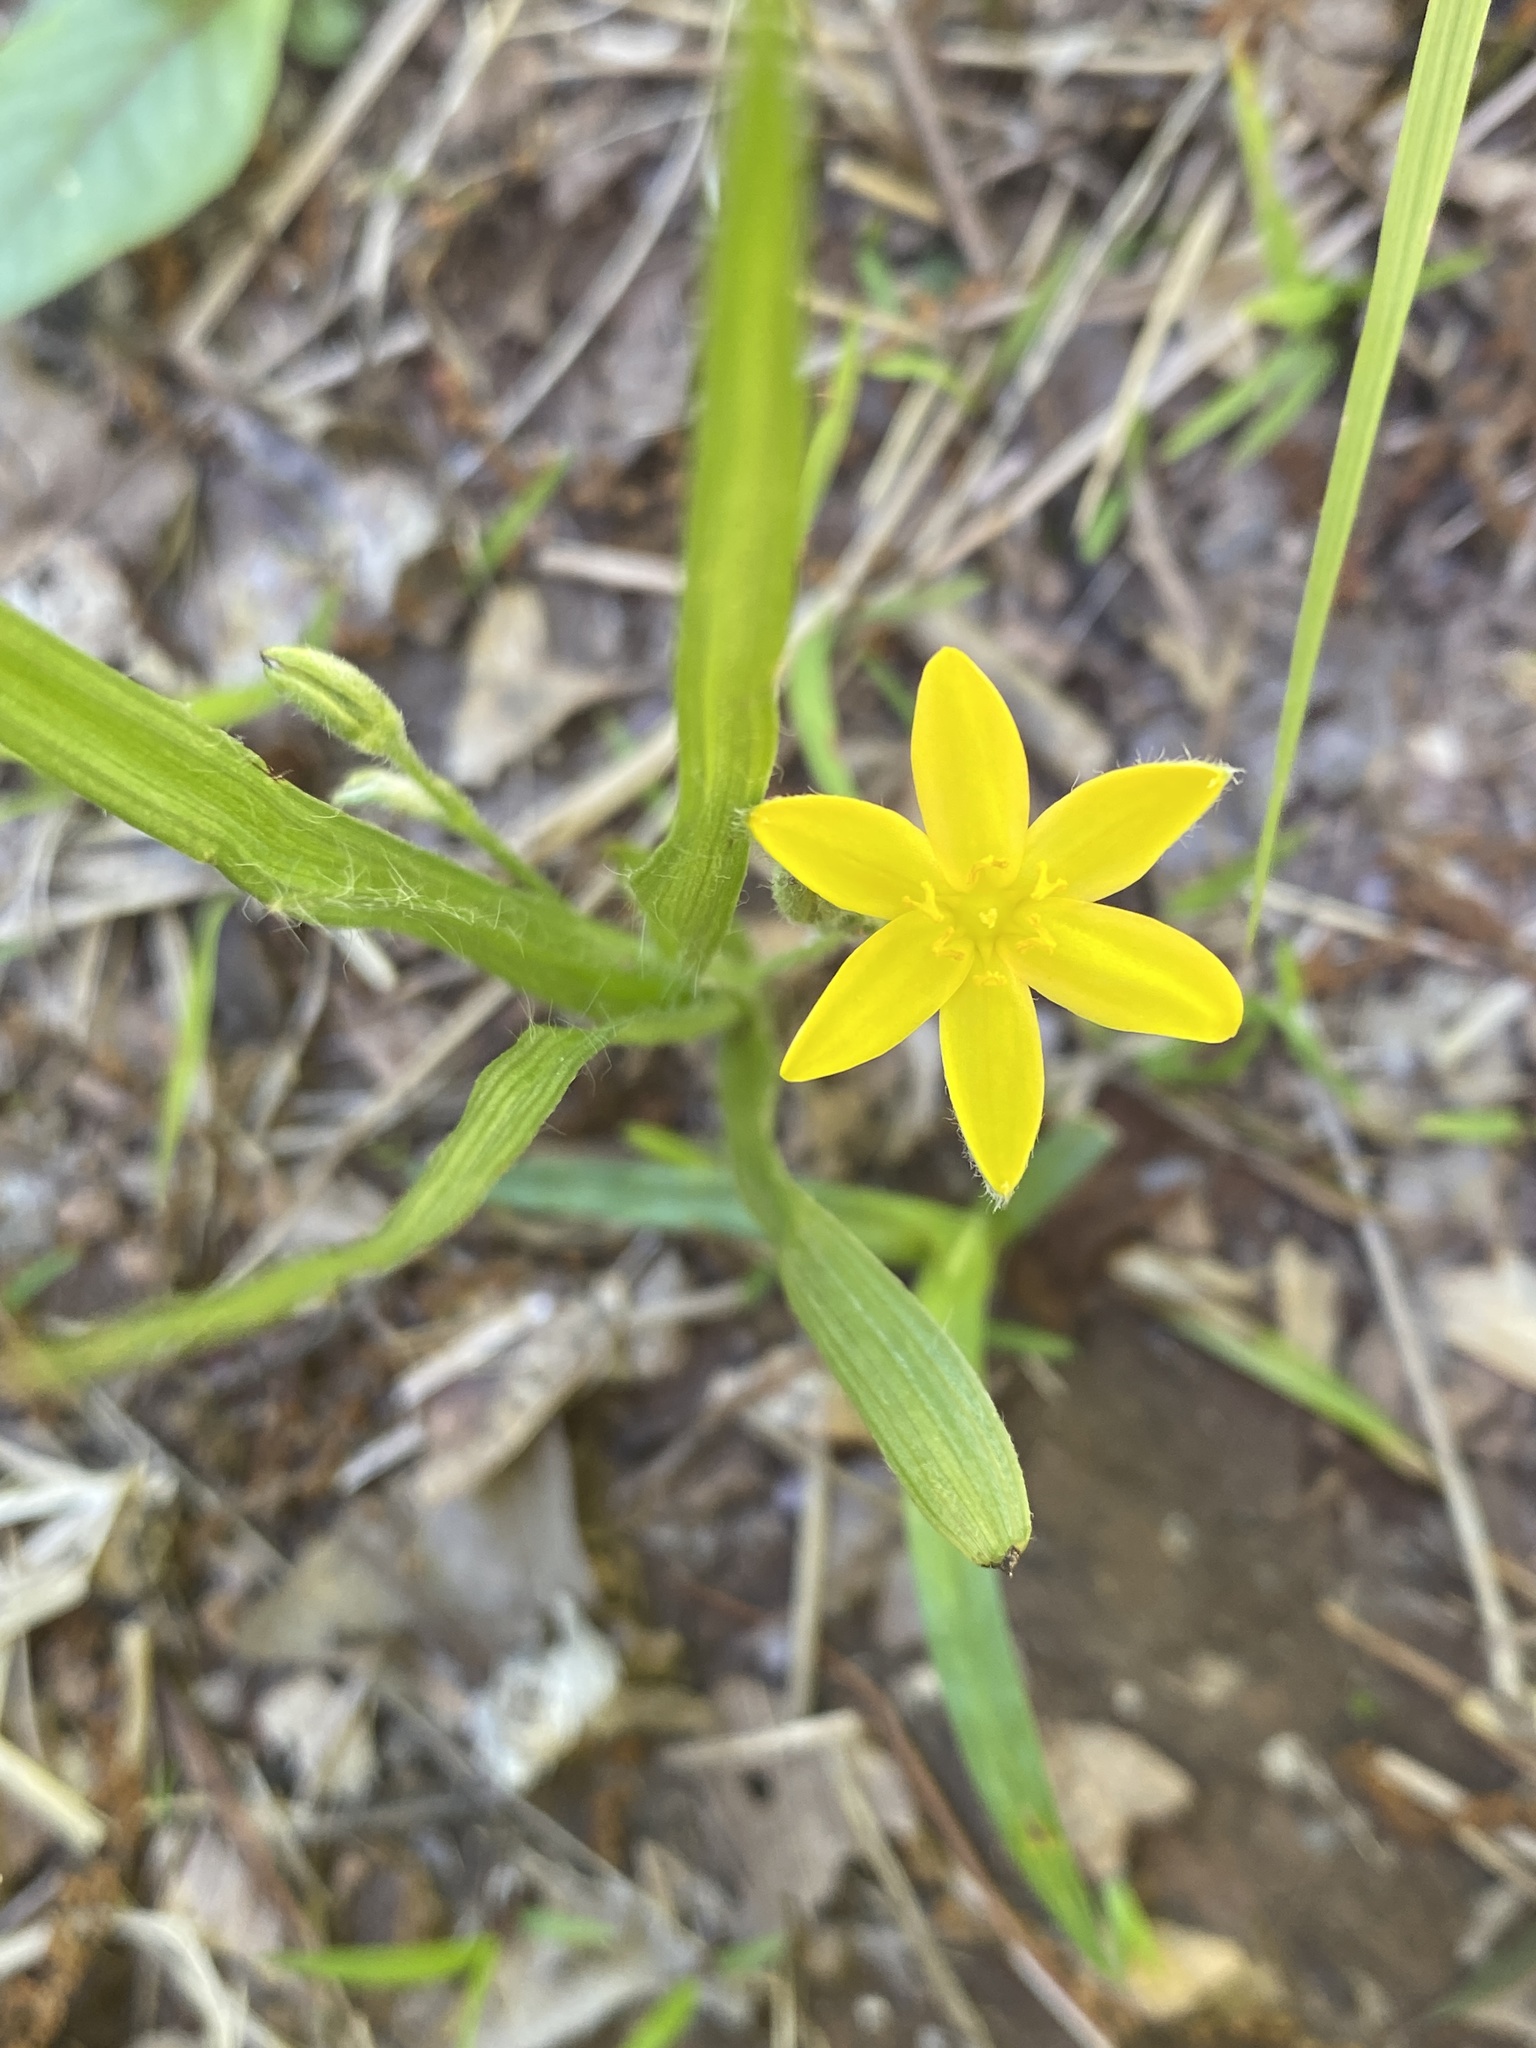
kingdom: Plantae
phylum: Tracheophyta
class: Liliopsida
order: Asparagales
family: Hypoxidaceae
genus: Hypoxis
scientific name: Hypoxis hirsuta
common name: Common goldstar
